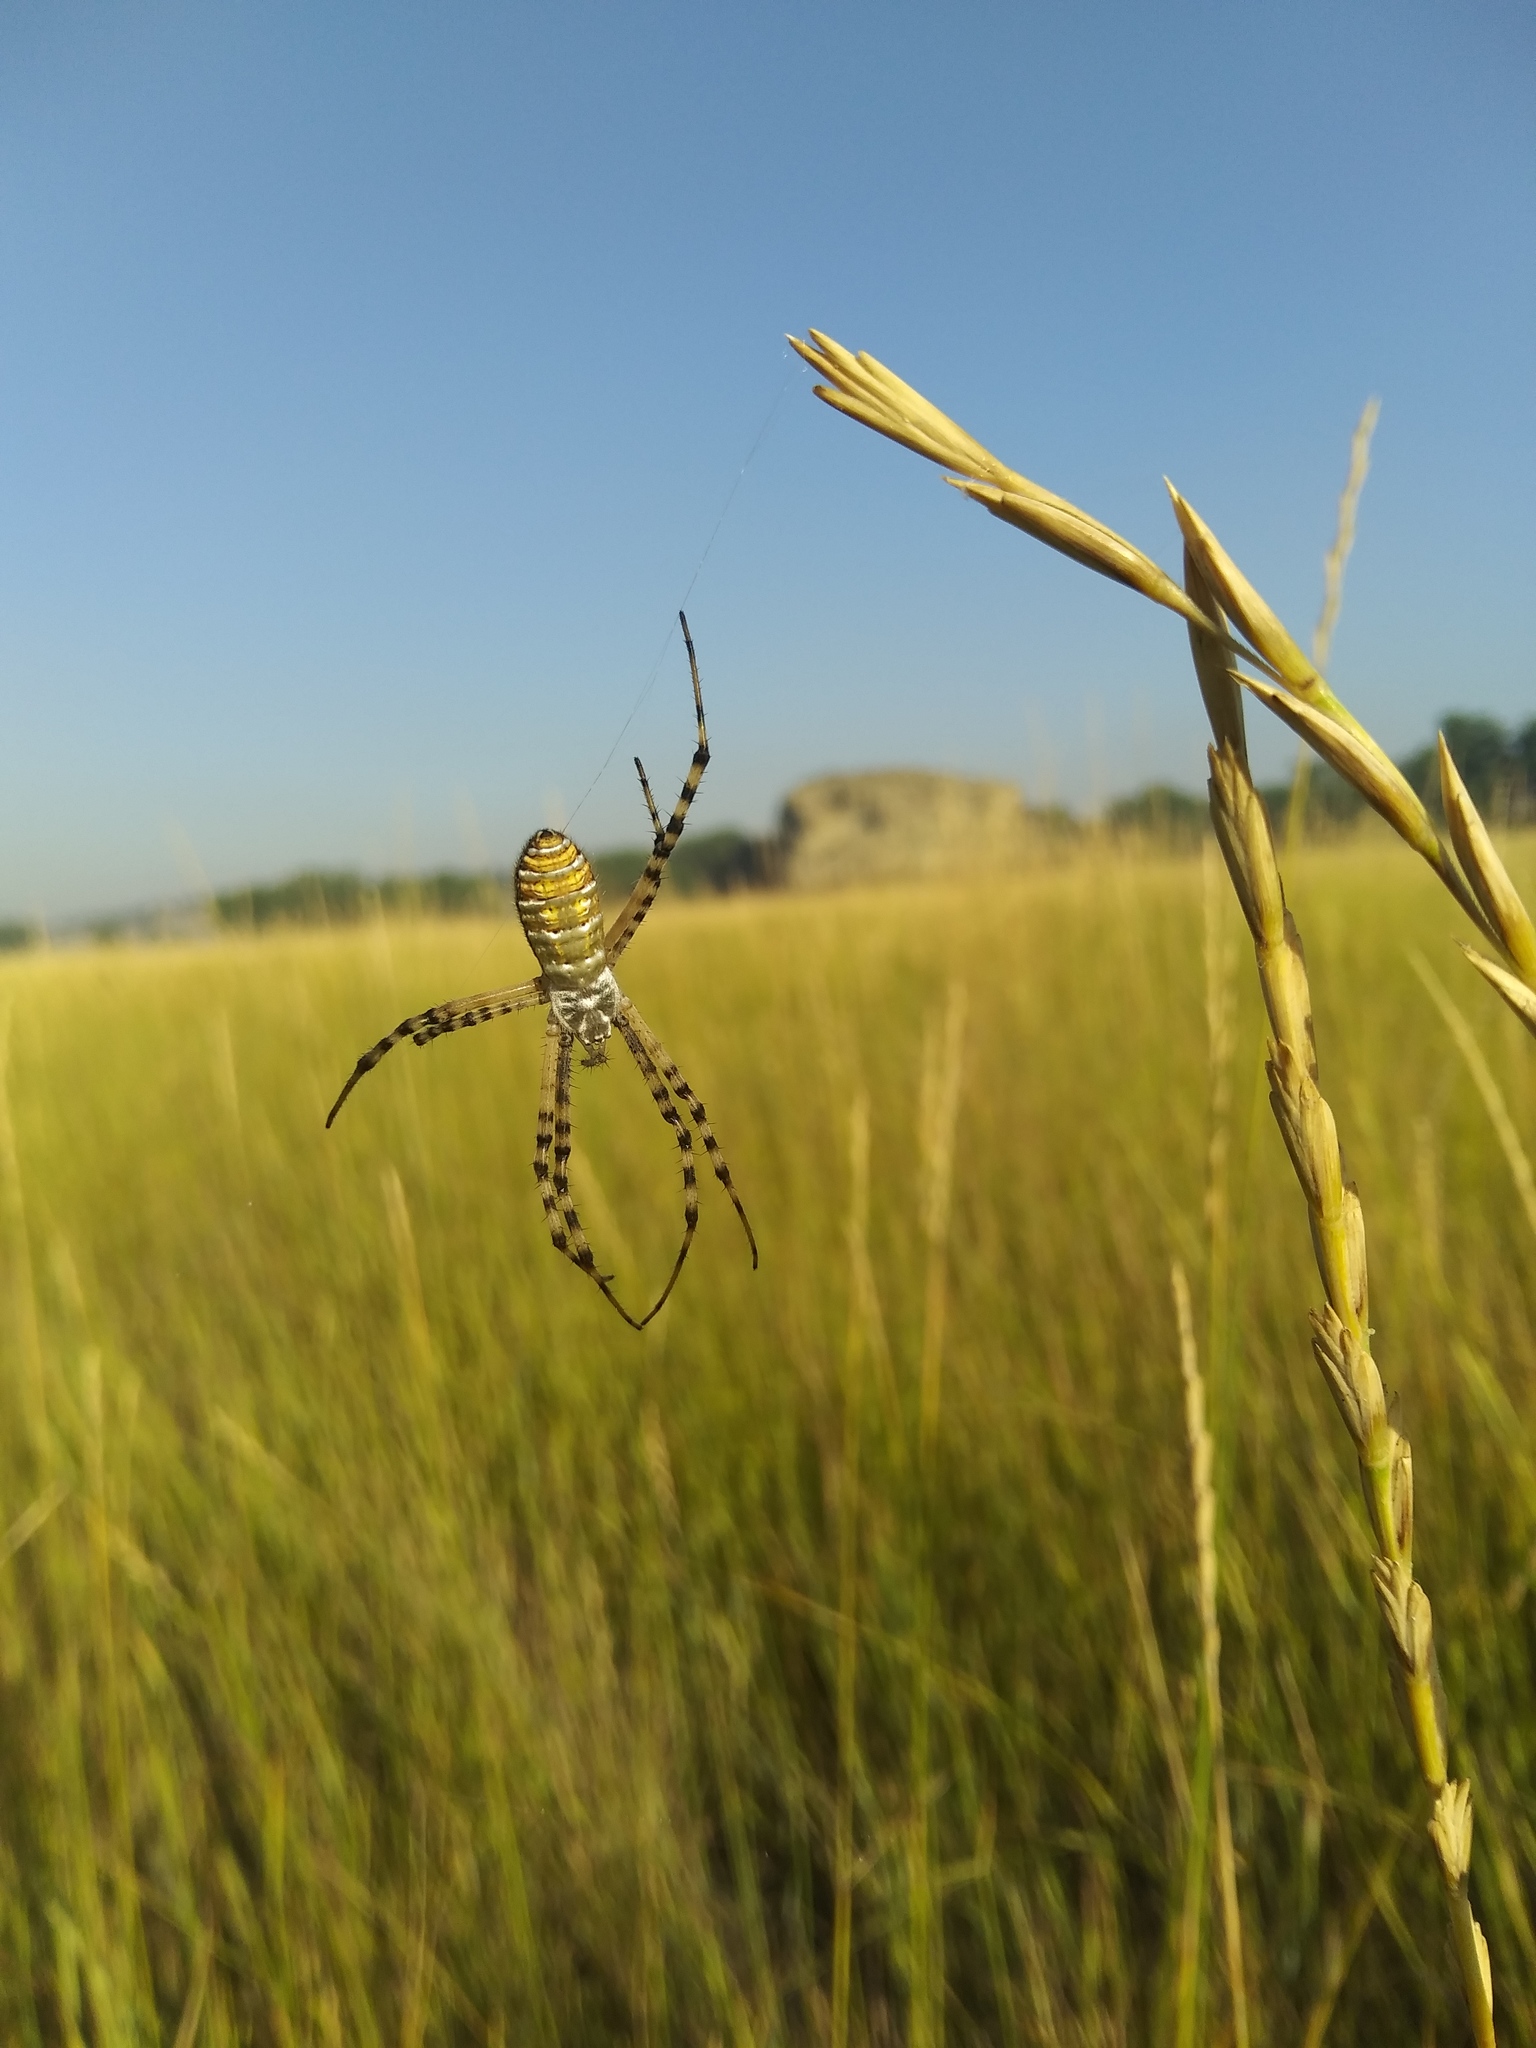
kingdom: Animalia
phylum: Arthropoda
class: Arachnida
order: Araneae
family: Araneidae
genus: Argiope
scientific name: Argiope trifasciata
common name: Banded garden spider
